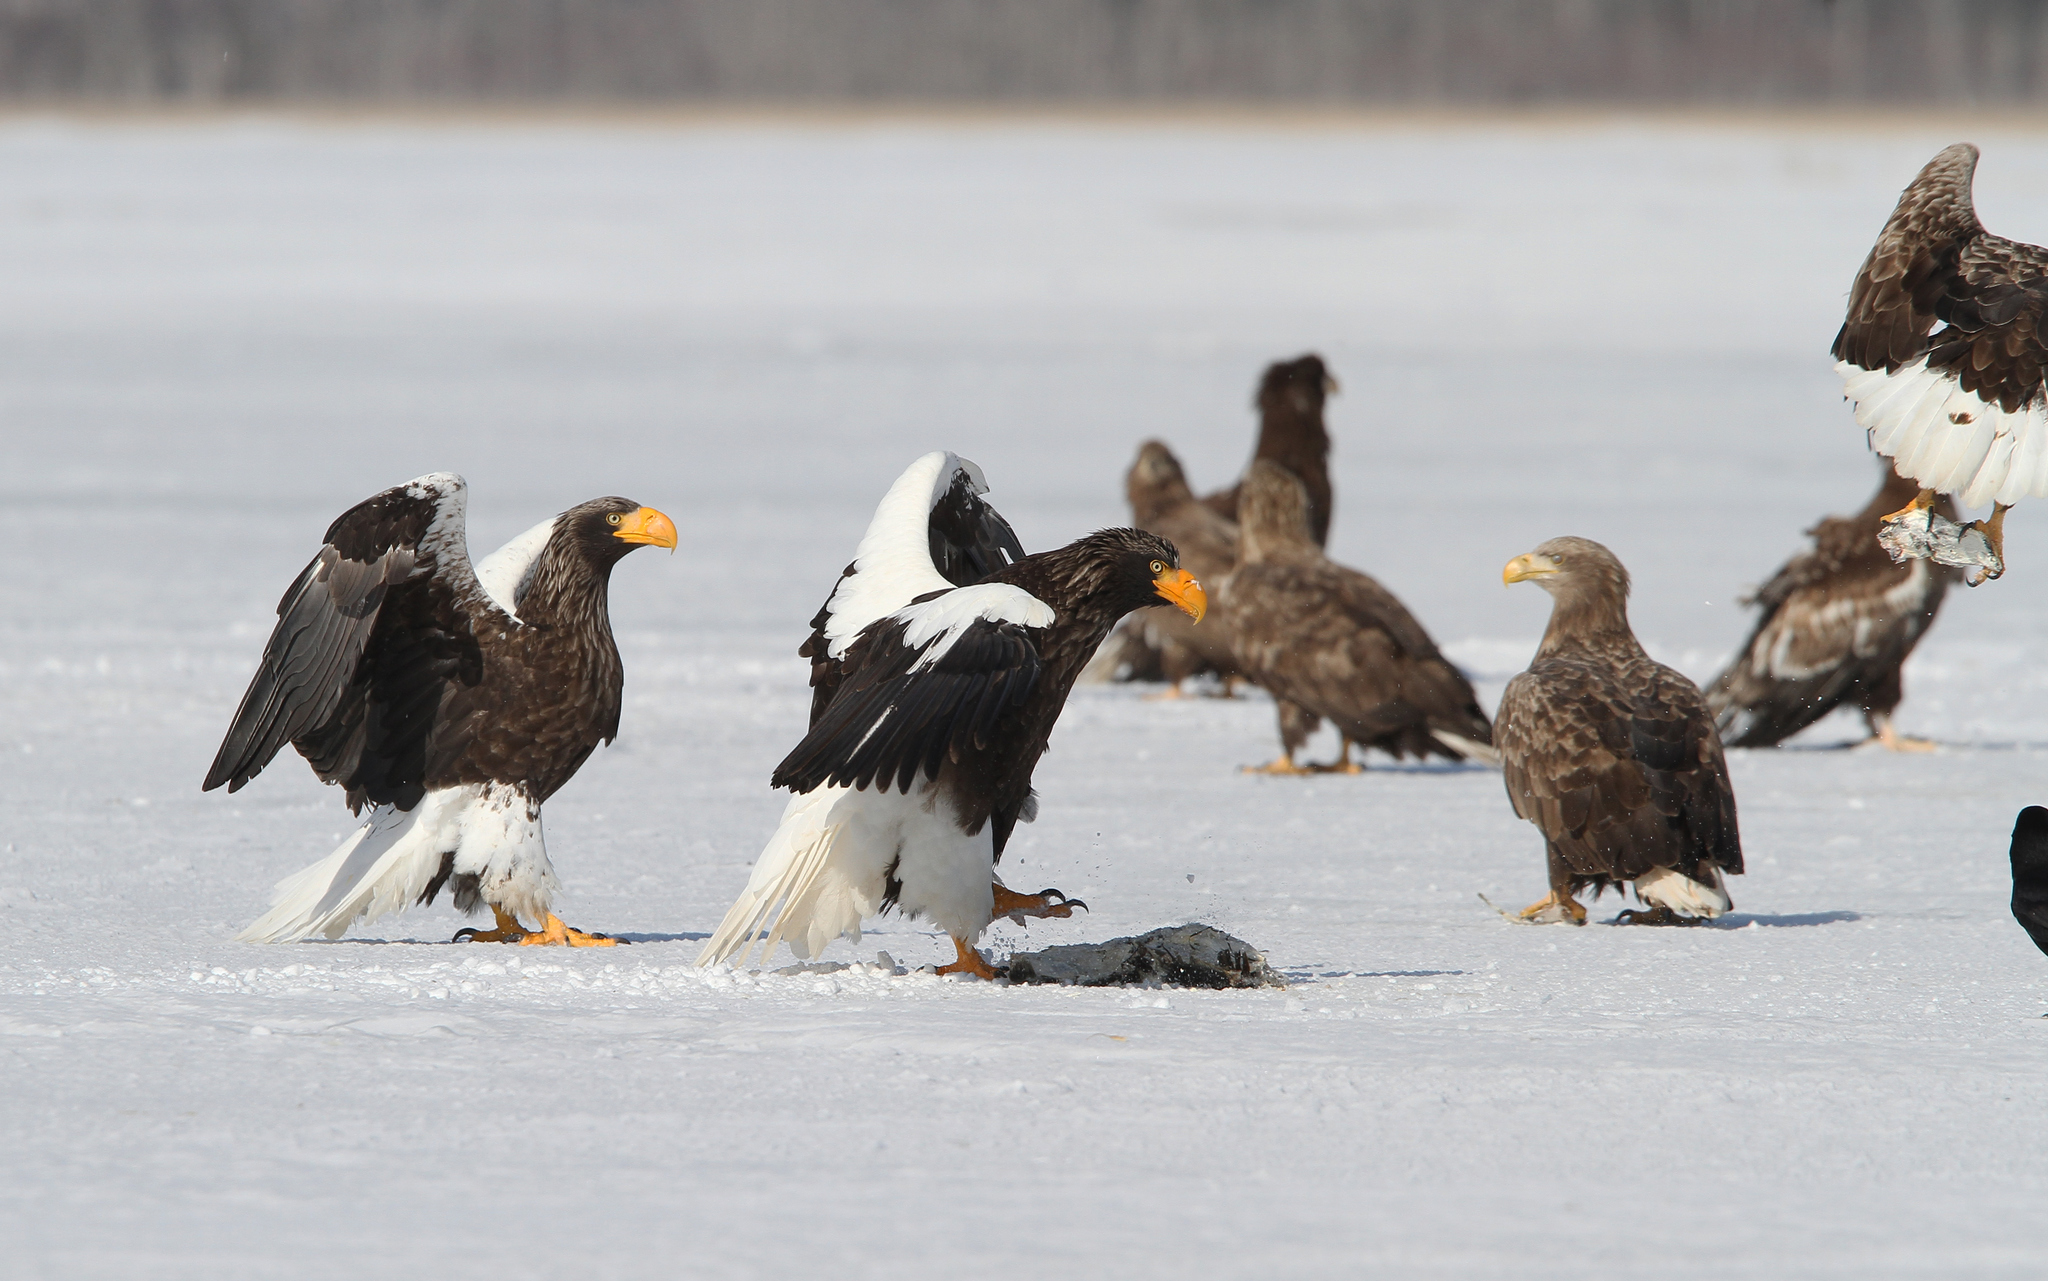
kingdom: Animalia
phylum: Chordata
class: Aves
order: Accipitriformes
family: Accipitridae
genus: Haliaeetus
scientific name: Haliaeetus pelagicus
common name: Steller's sea eagle
